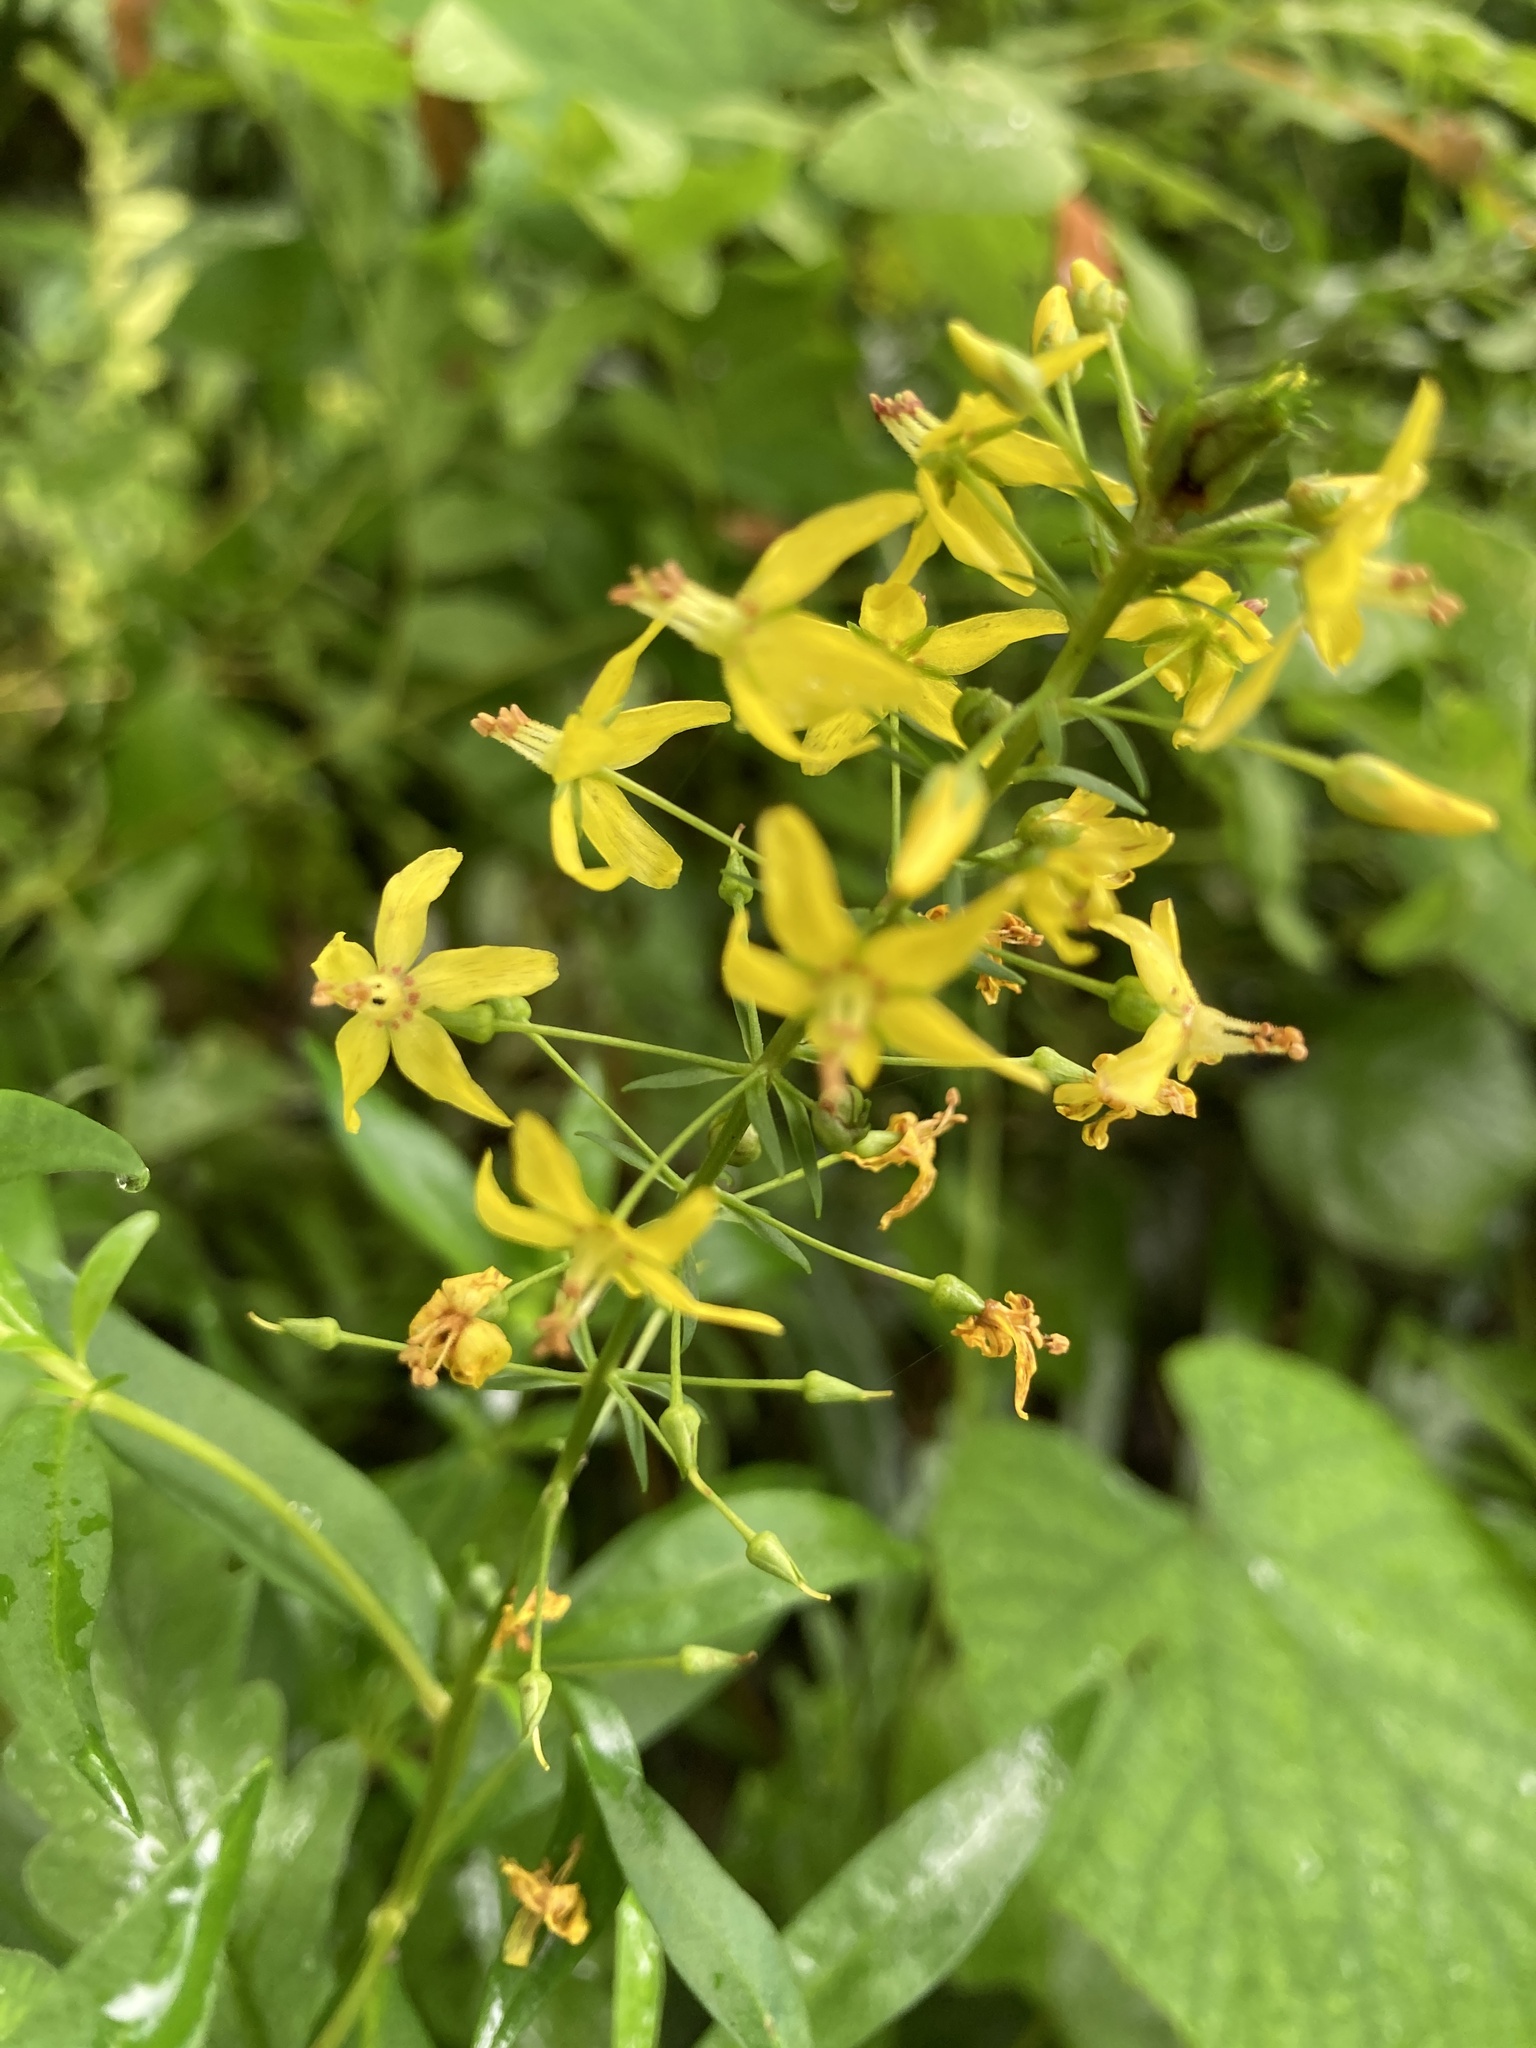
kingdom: Plantae
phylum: Tracheophyta
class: Magnoliopsida
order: Ericales
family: Primulaceae
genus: Lysimachia
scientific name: Lysimachia terrestris
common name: Lake loosestrife
